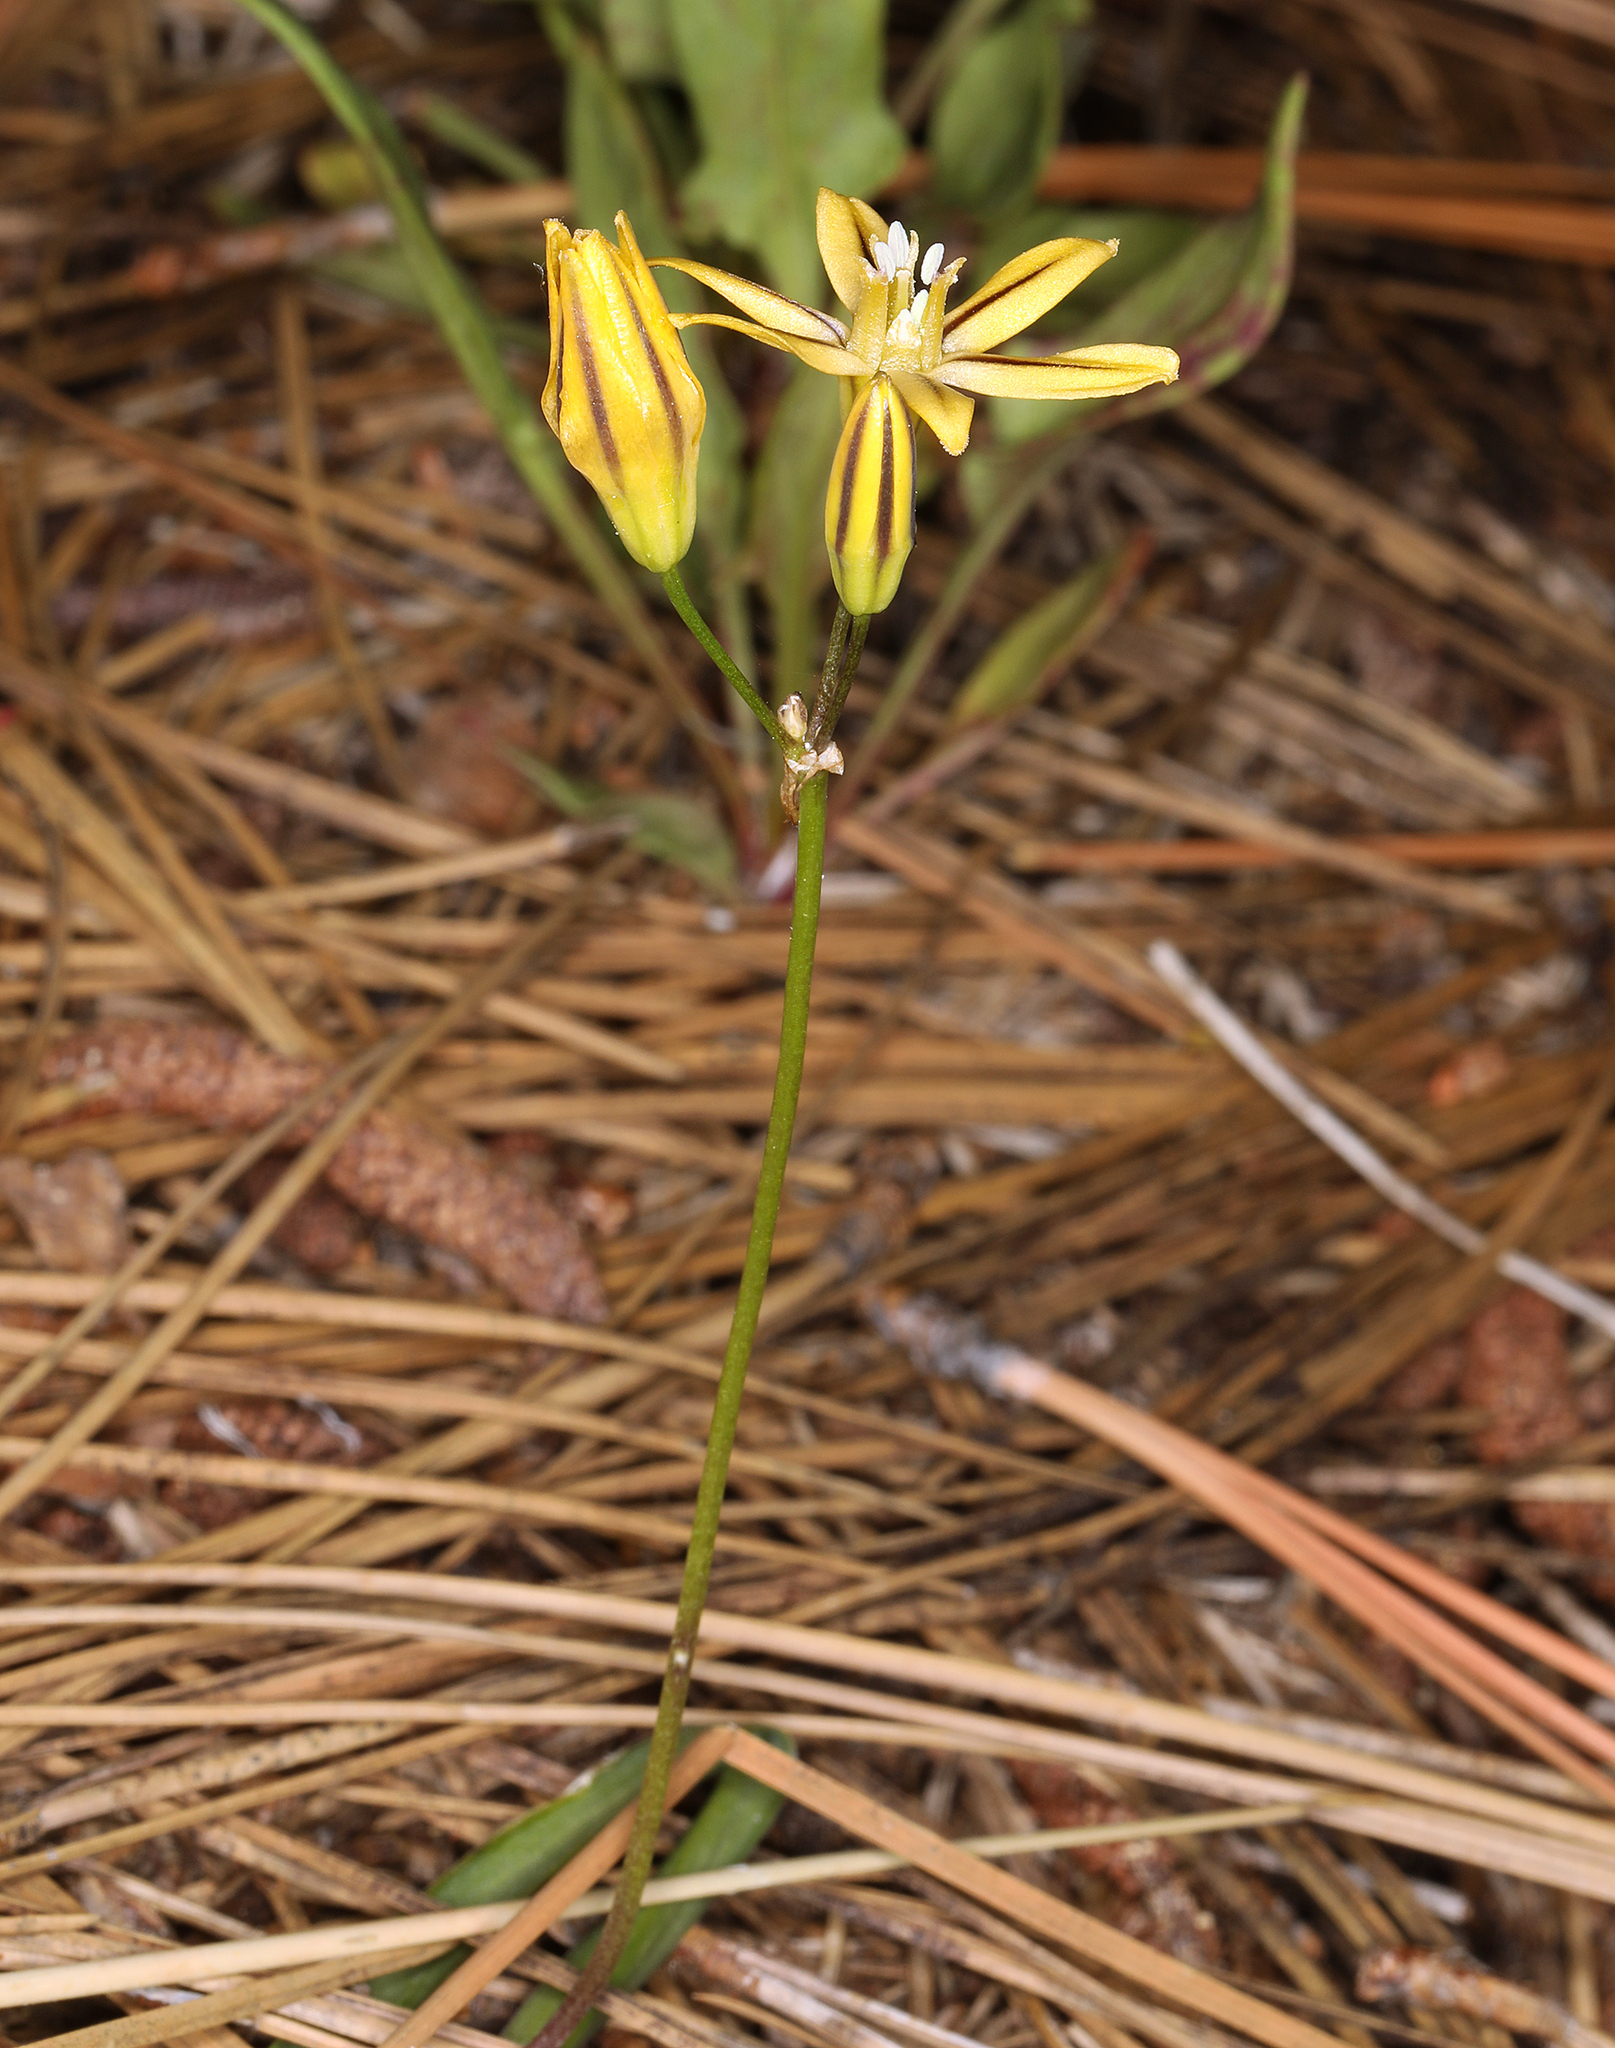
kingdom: Plantae
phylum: Tracheophyta
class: Liliopsida
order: Asparagales
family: Asparagaceae
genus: Triteleia
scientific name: Triteleia ixioides
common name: Yellow-brodiaea
